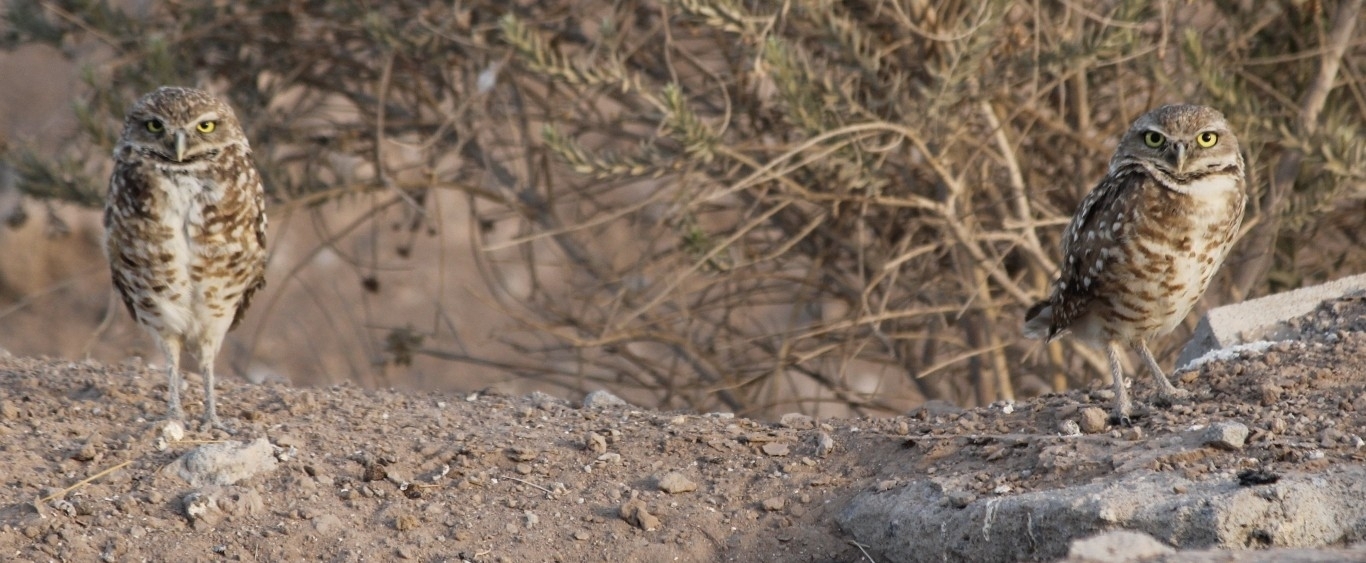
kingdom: Animalia
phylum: Chordata
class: Aves
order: Strigiformes
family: Strigidae
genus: Athene
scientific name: Athene cunicularia
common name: Burrowing owl
